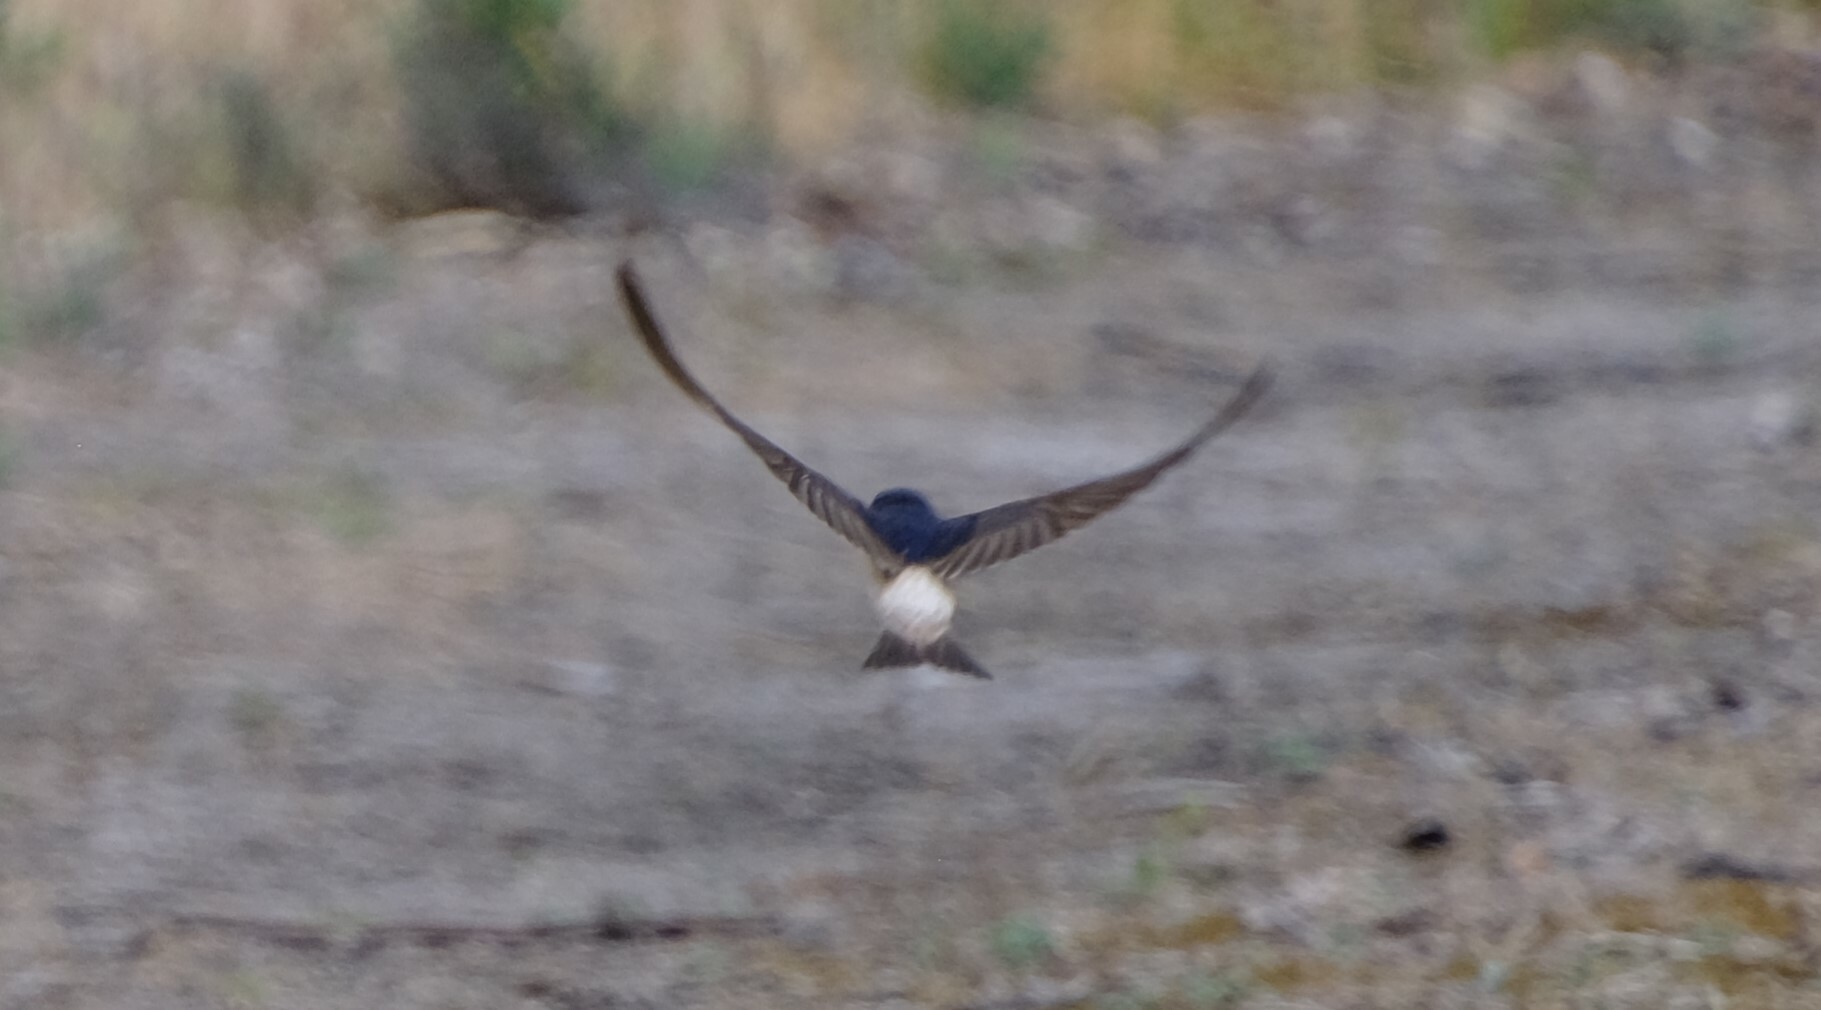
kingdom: Animalia
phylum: Chordata
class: Aves
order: Passeriformes
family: Hirundinidae
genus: Petrochelidon
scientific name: Petrochelidon nigricans
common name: Tree martin
